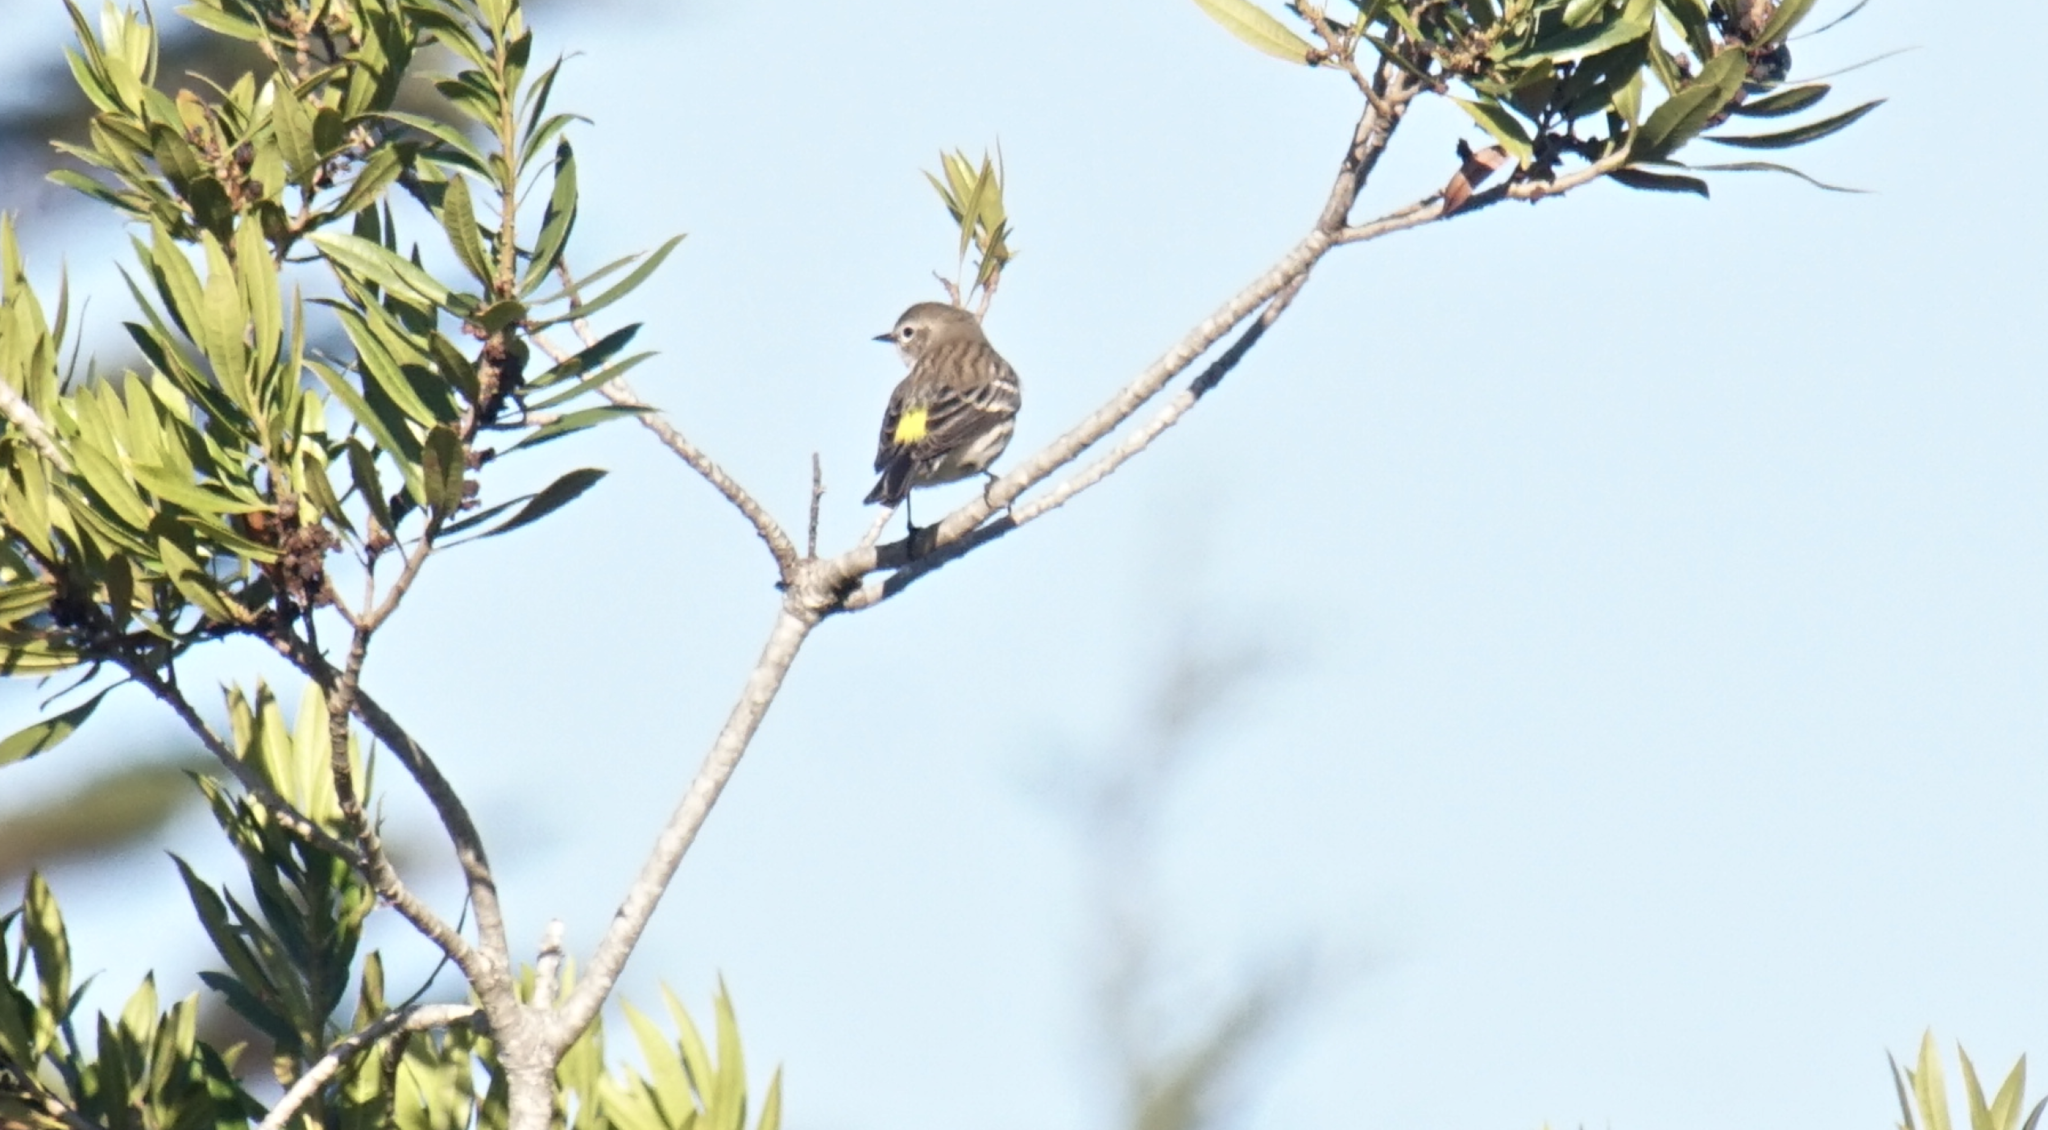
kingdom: Animalia
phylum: Chordata
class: Aves
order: Passeriformes
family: Parulidae
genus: Setophaga
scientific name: Setophaga coronata
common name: Myrtle warbler
